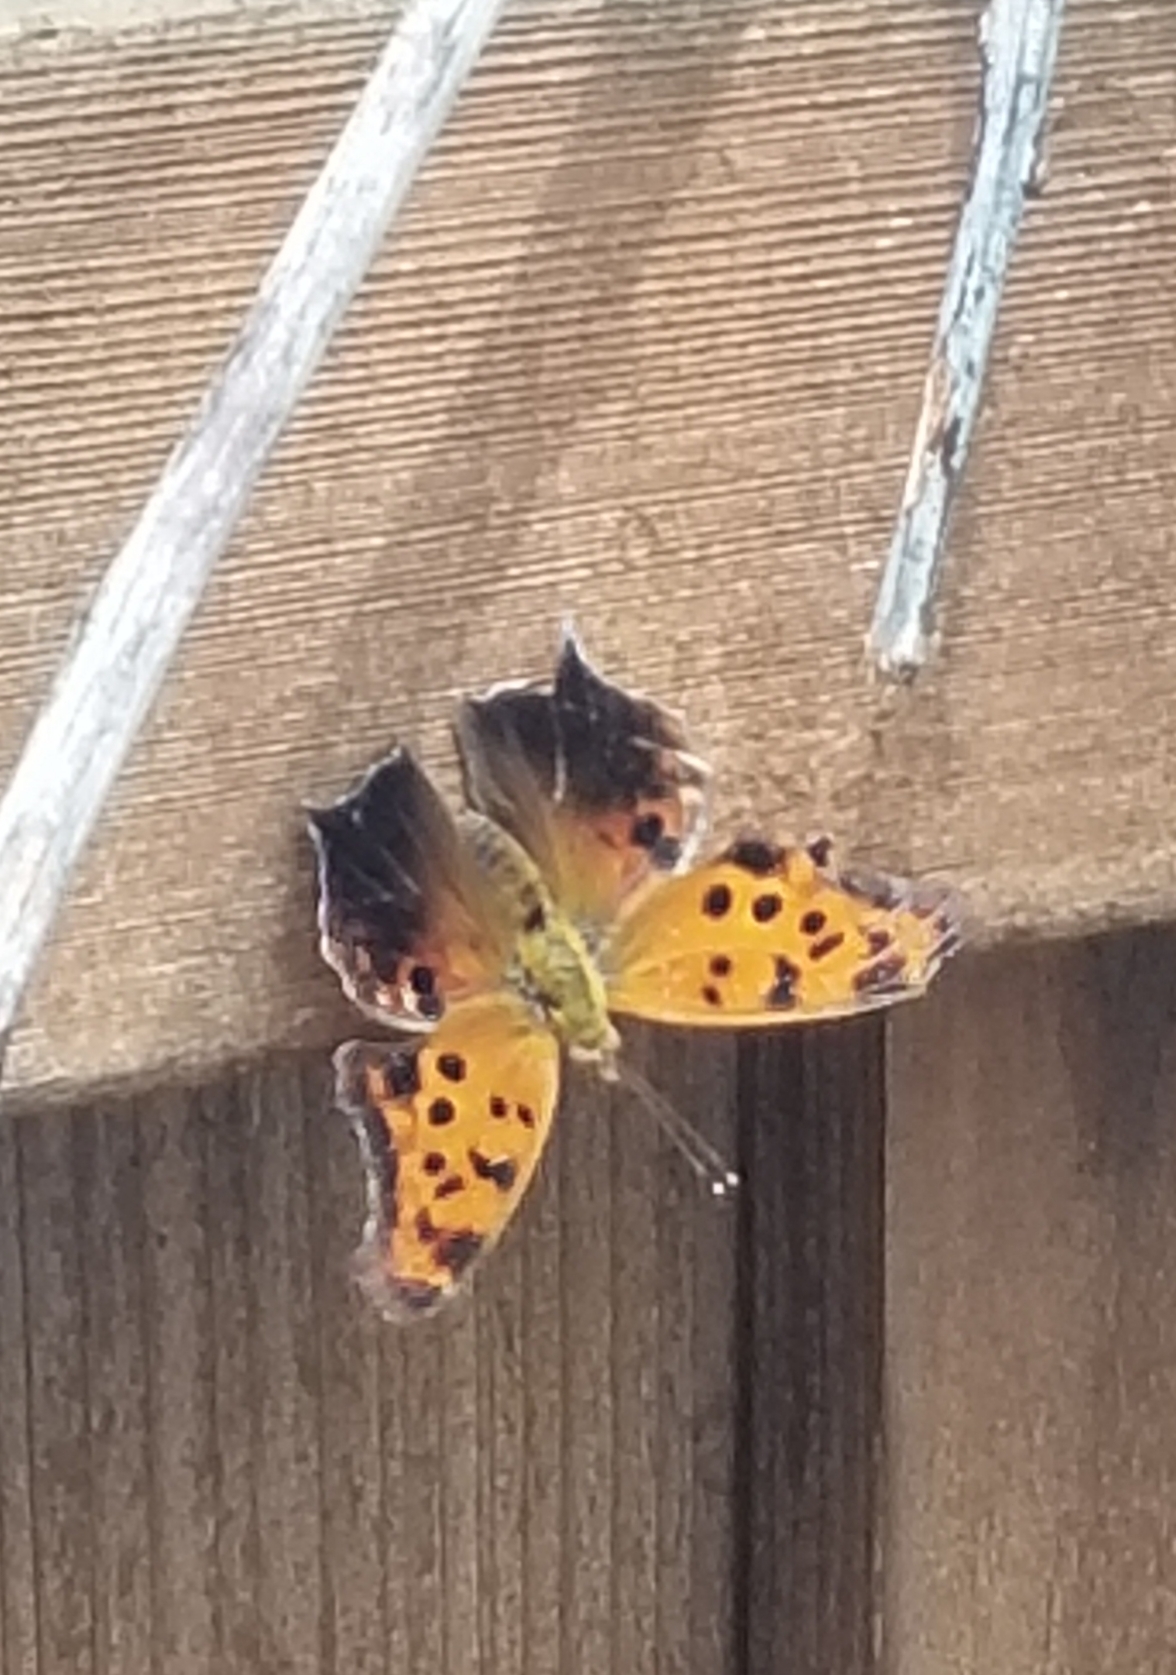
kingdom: Animalia
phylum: Arthropoda
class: Insecta
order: Lepidoptera
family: Nymphalidae
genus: Polygonia
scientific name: Polygonia interrogationis
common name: Question mark
